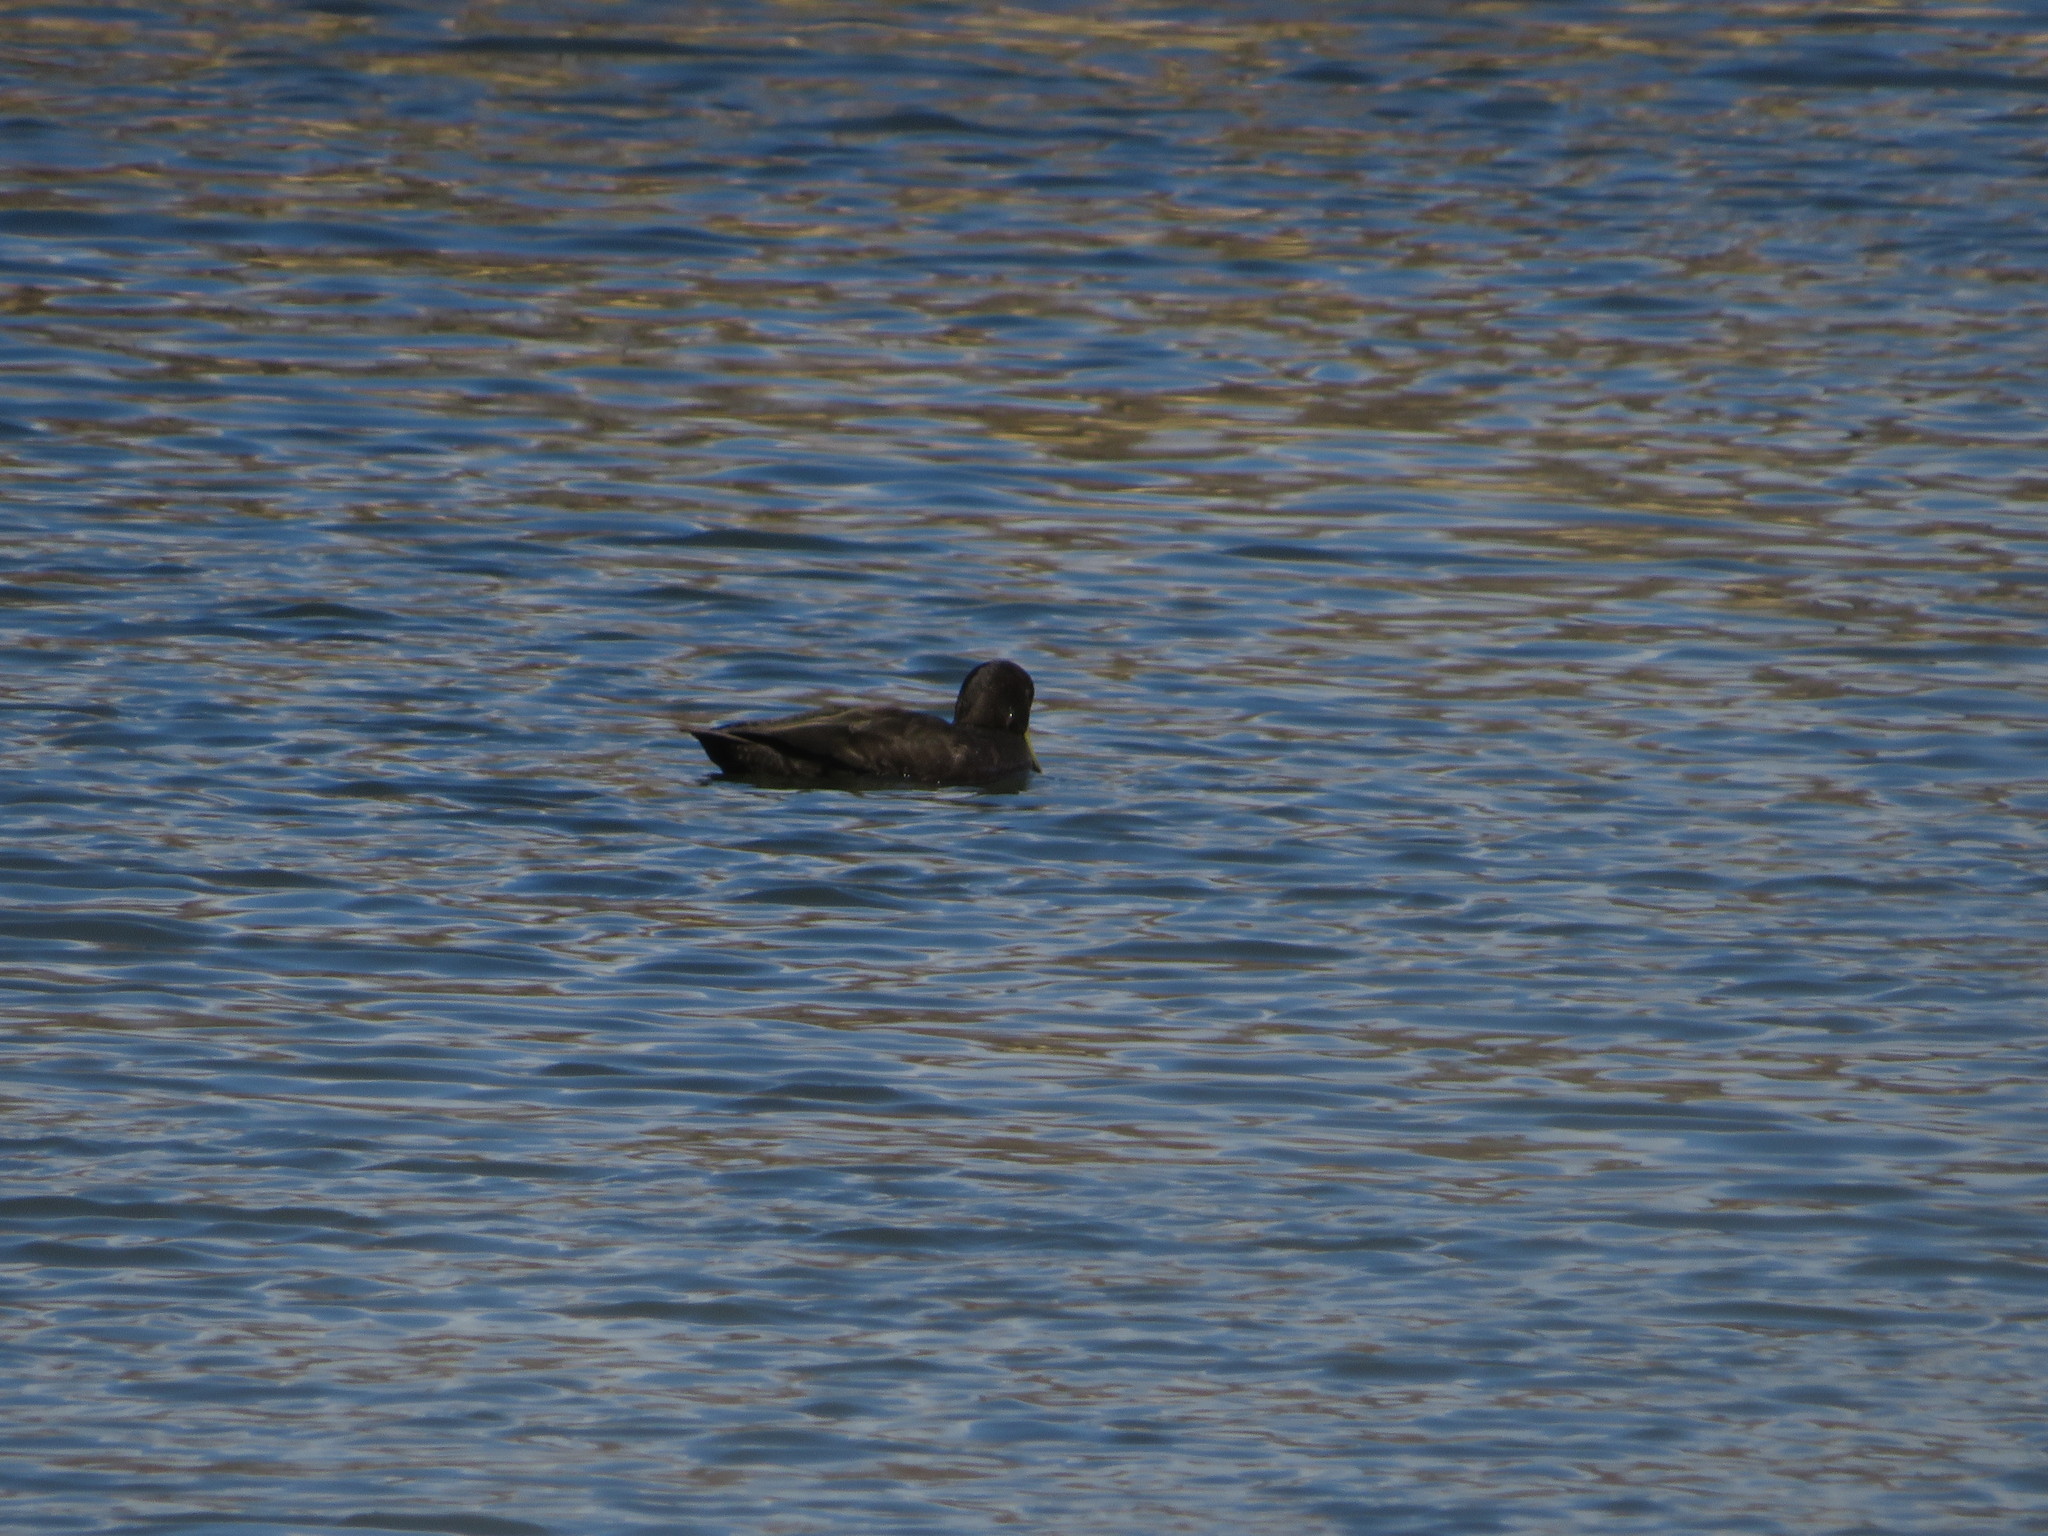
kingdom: Animalia
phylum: Chordata
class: Aves
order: Anseriformes
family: Anatidae
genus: Anas
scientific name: Anas platyrhynchos
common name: Mallard
